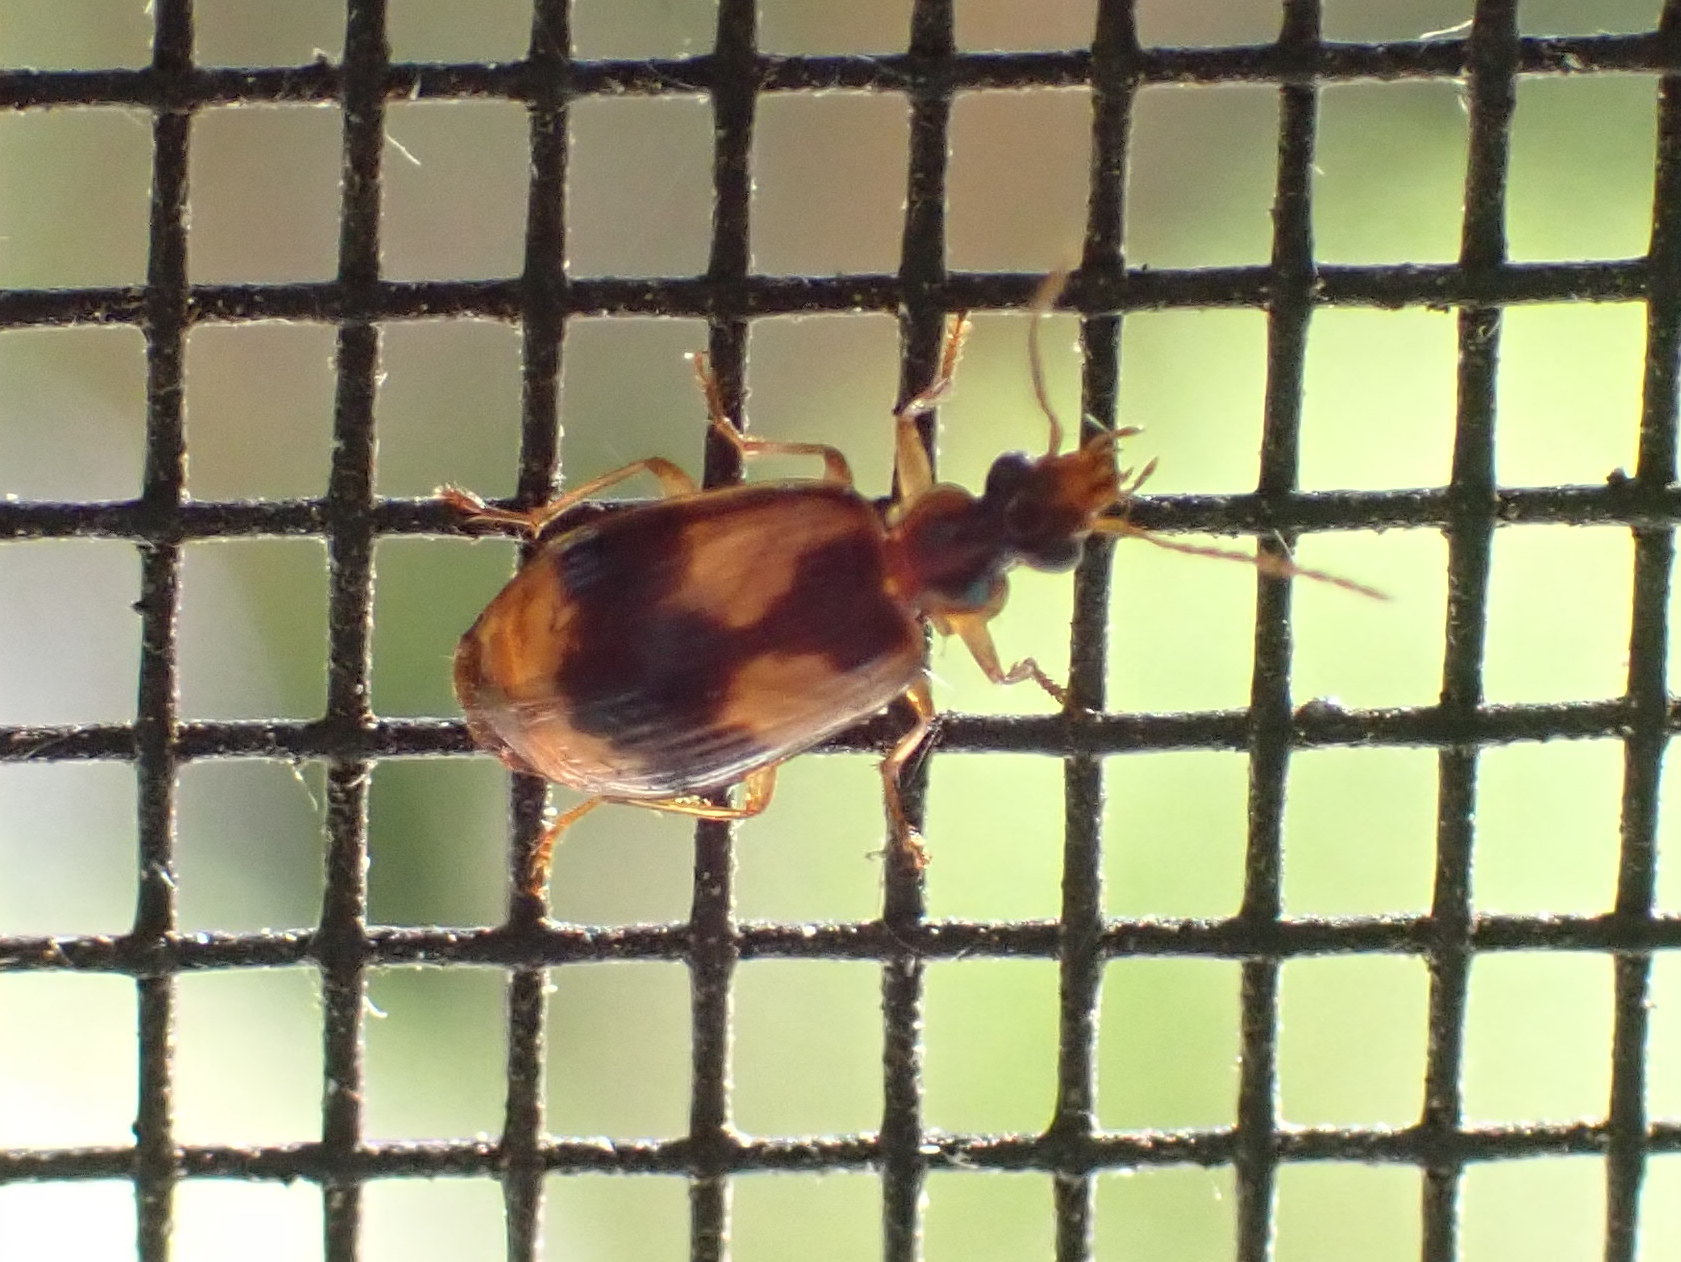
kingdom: Animalia
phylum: Arthropoda
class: Insecta
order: Coleoptera
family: Carabidae
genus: Lebia
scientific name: Lebia fuscata
